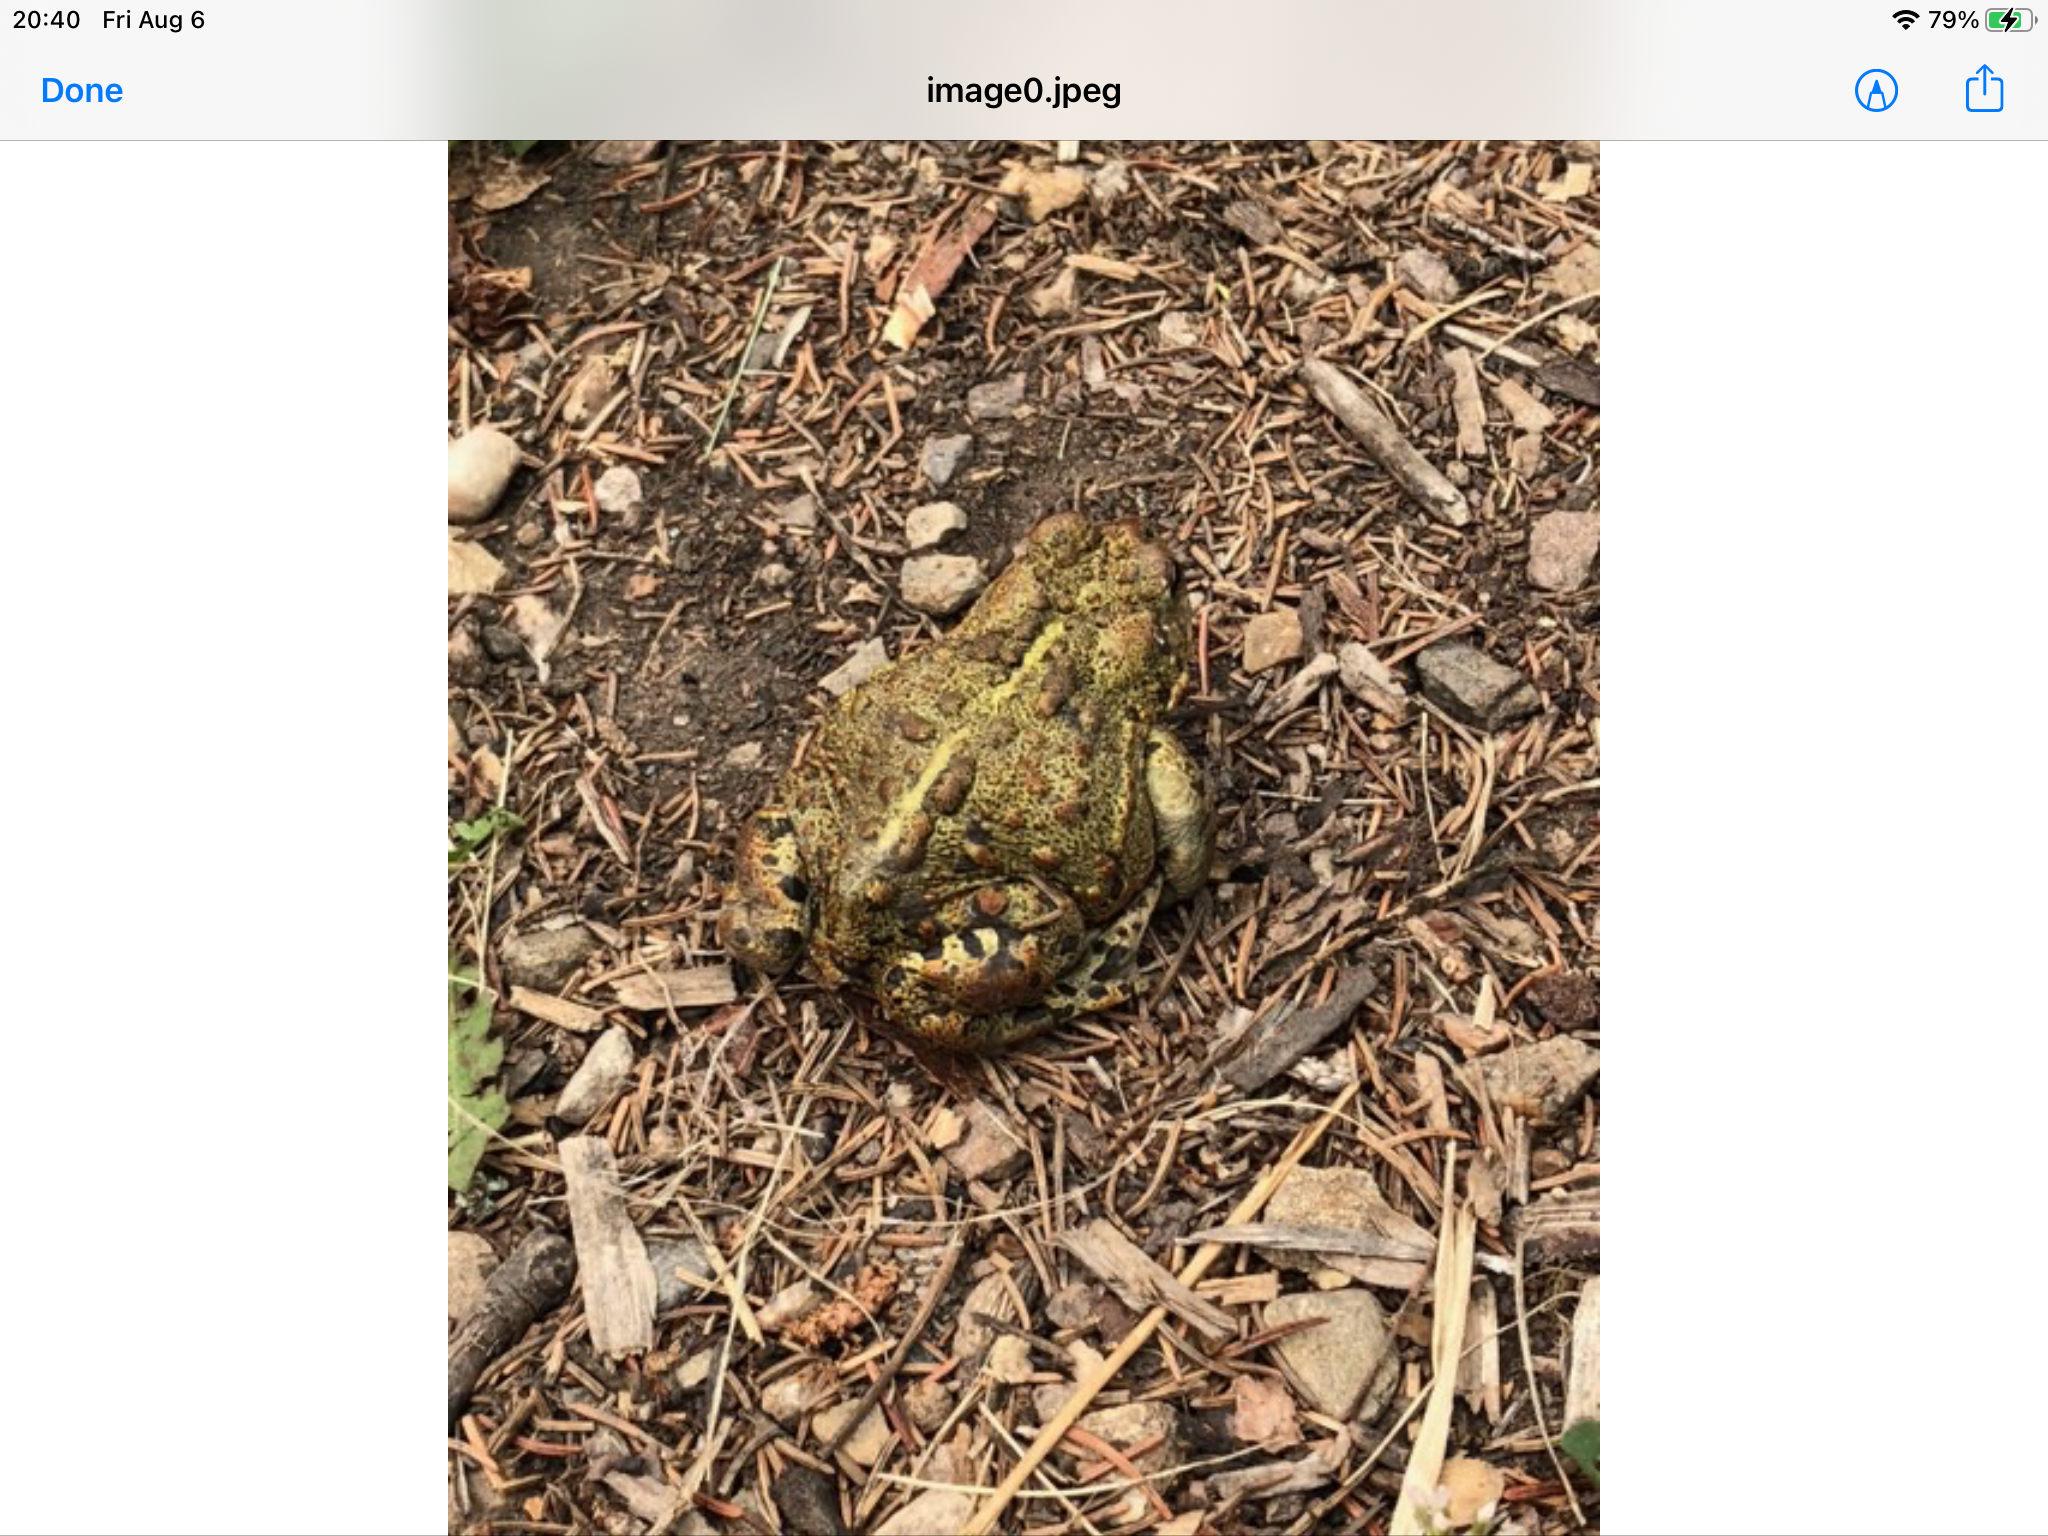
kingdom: Animalia
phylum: Chordata
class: Amphibia
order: Anura
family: Bufonidae
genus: Anaxyrus
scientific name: Anaxyrus boreas
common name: Western toad
